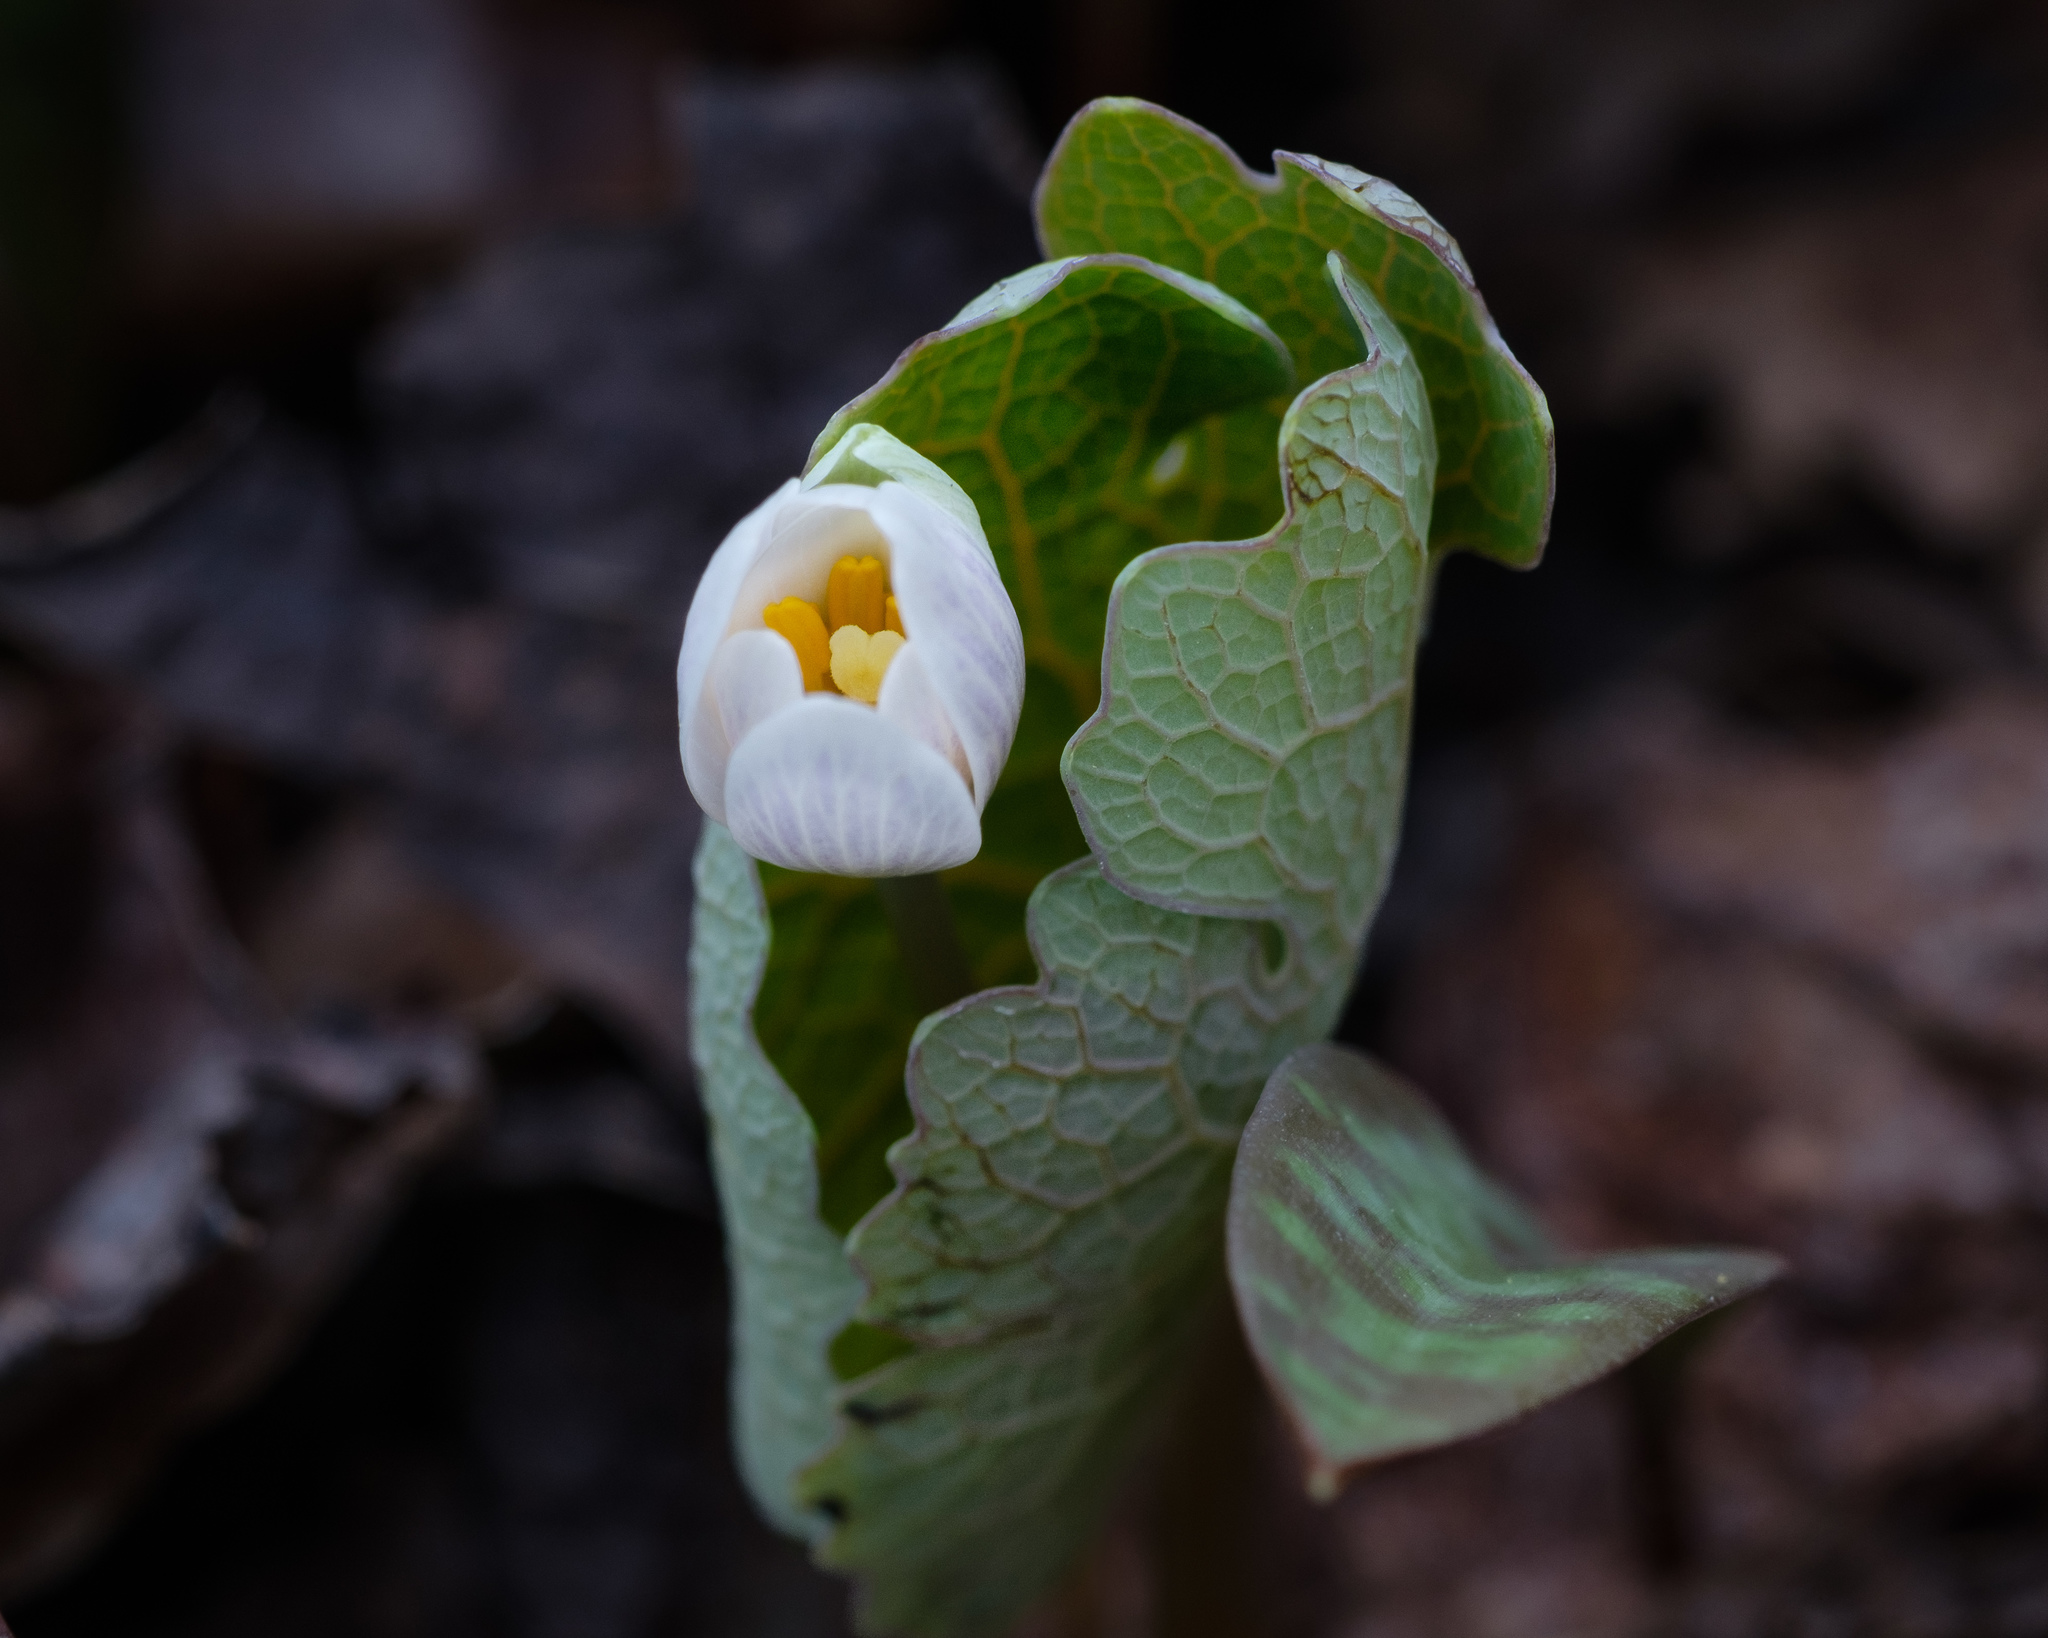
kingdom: Plantae
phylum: Tracheophyta
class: Magnoliopsida
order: Ranunculales
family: Papaveraceae
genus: Sanguinaria
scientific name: Sanguinaria canadensis
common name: Bloodroot
